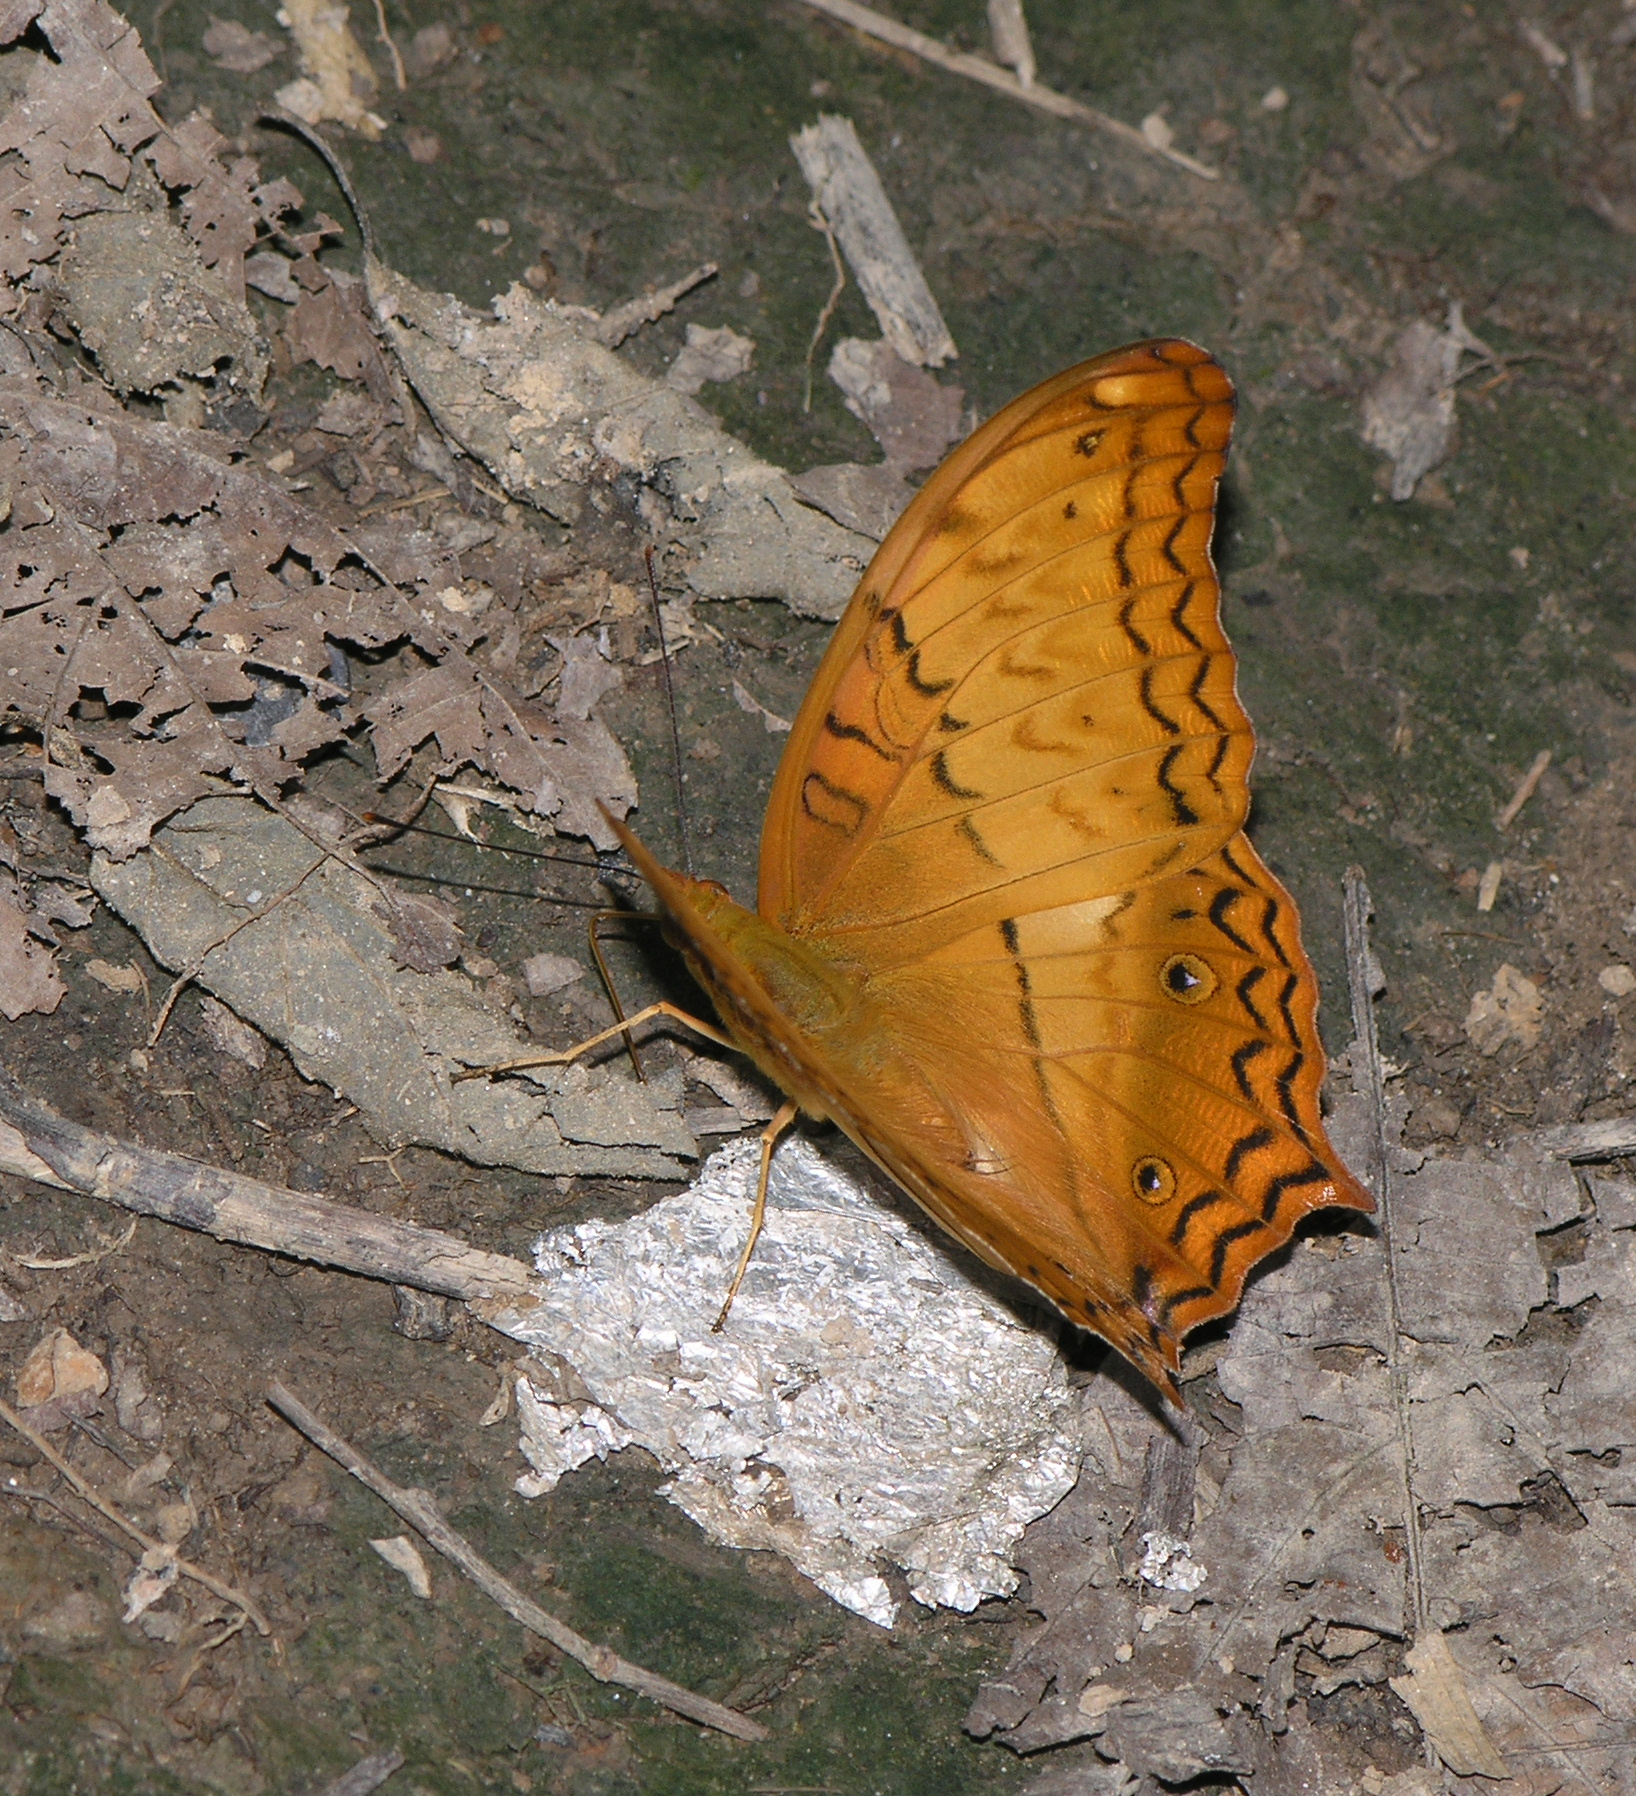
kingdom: Animalia
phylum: Arthropoda
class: Insecta
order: Lepidoptera
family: Nymphalidae
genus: Vindula
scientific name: Vindula erota
